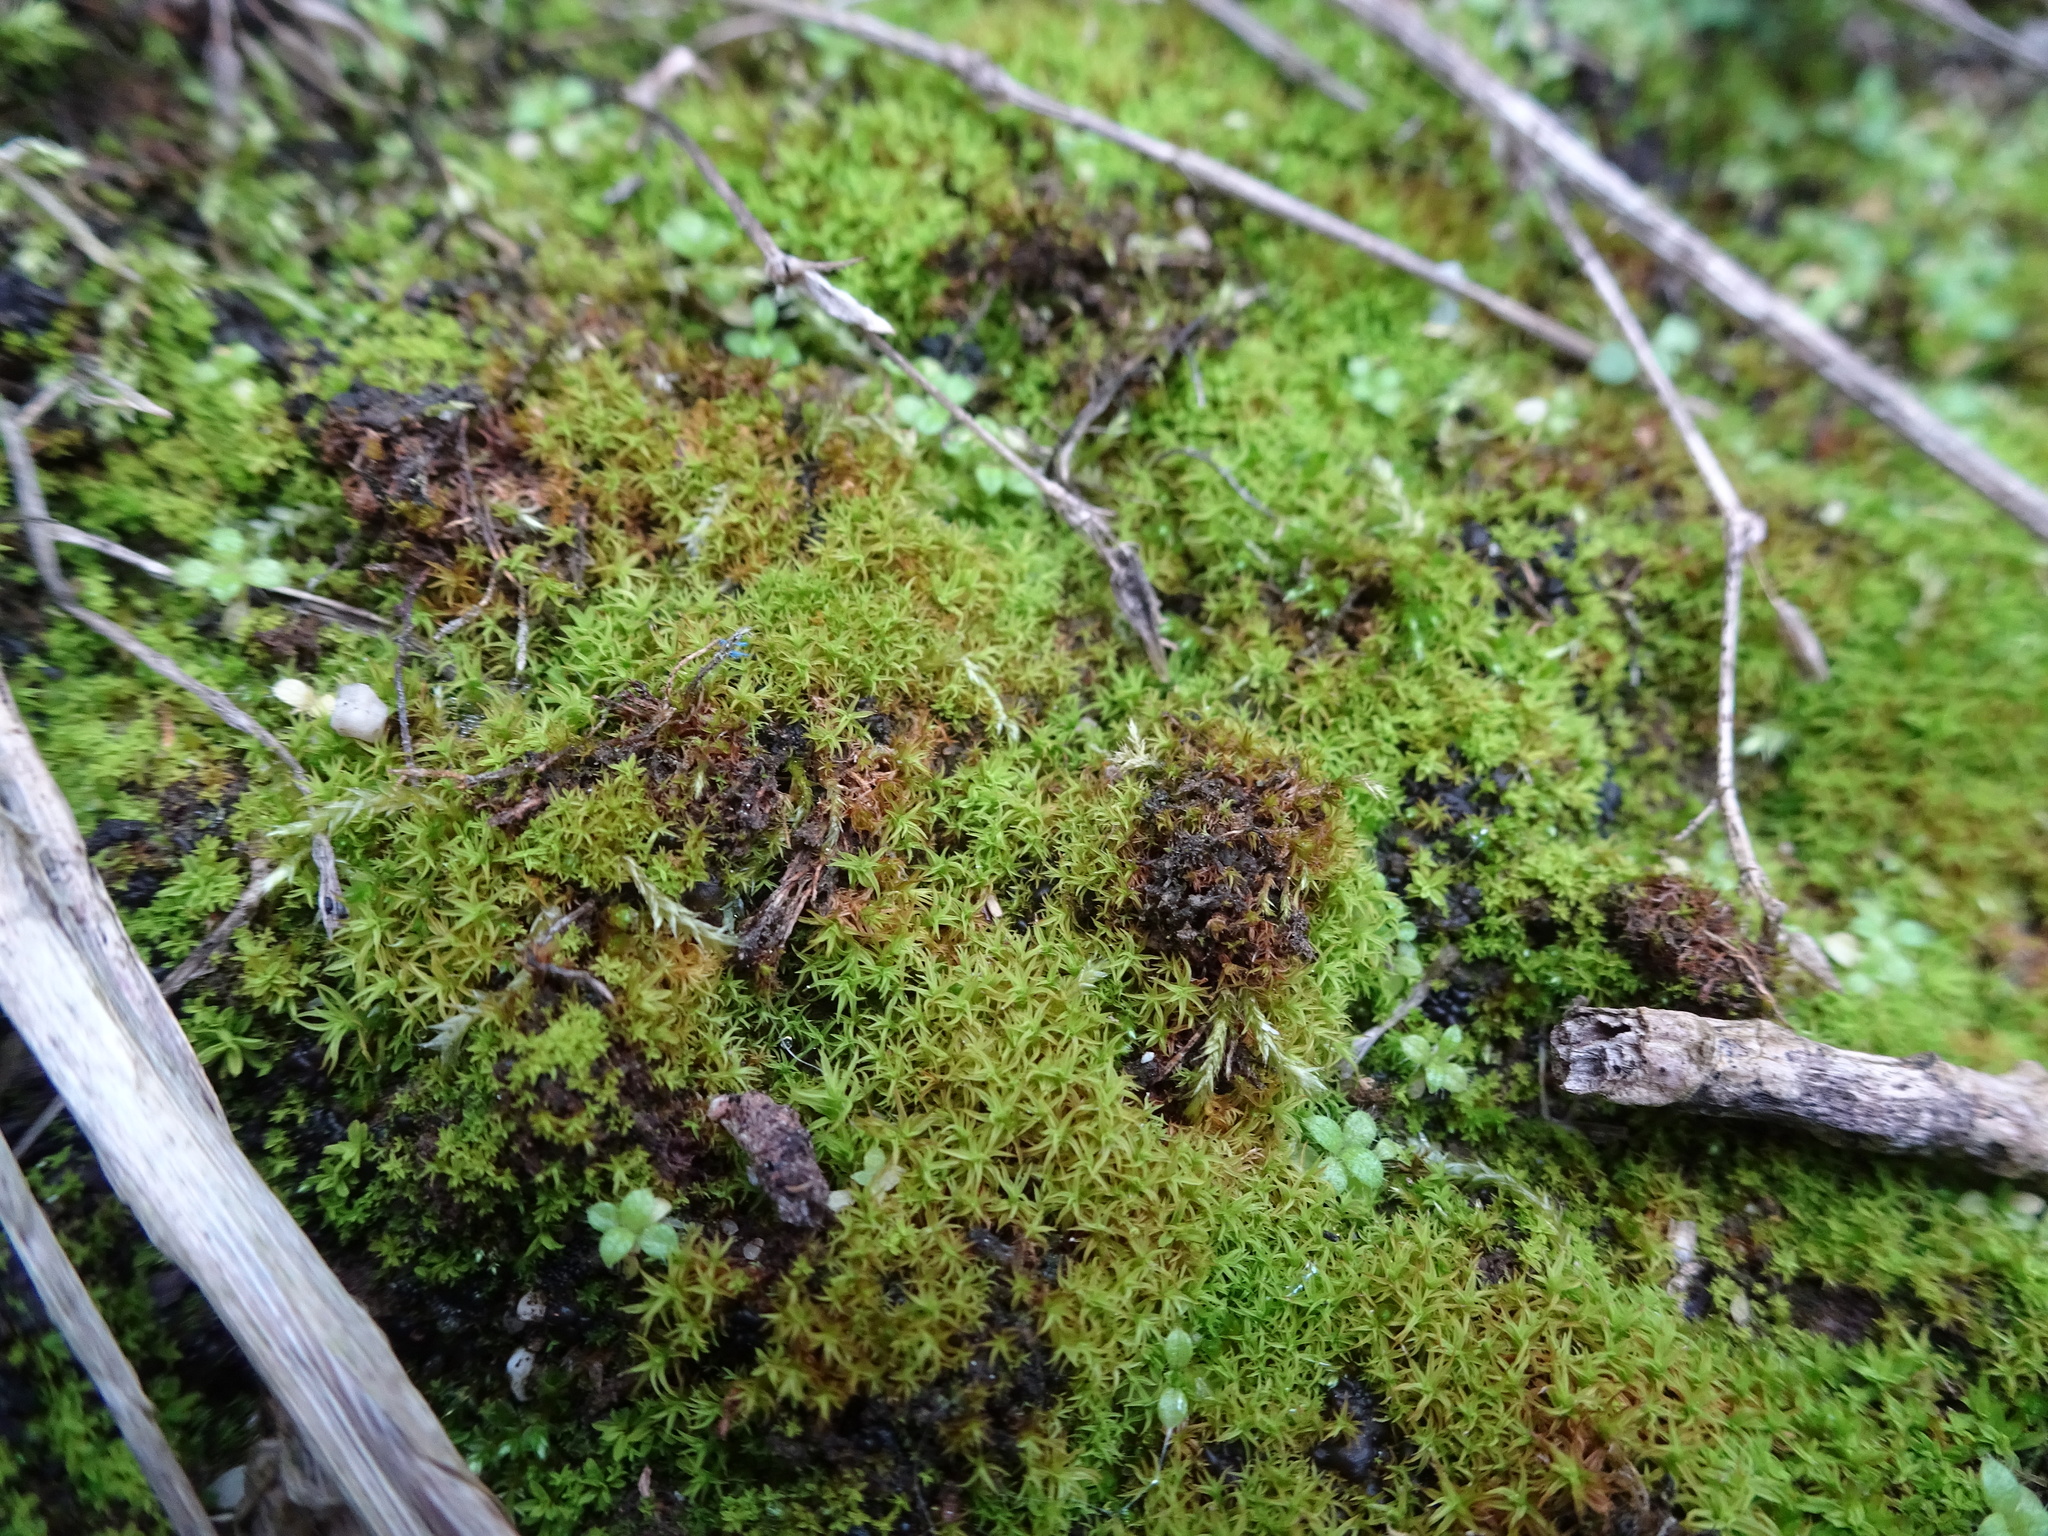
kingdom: Plantae
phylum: Bryophyta
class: Bryopsida
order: Pottiales
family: Pottiaceae
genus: Vinealobryum
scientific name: Vinealobryum vineale
